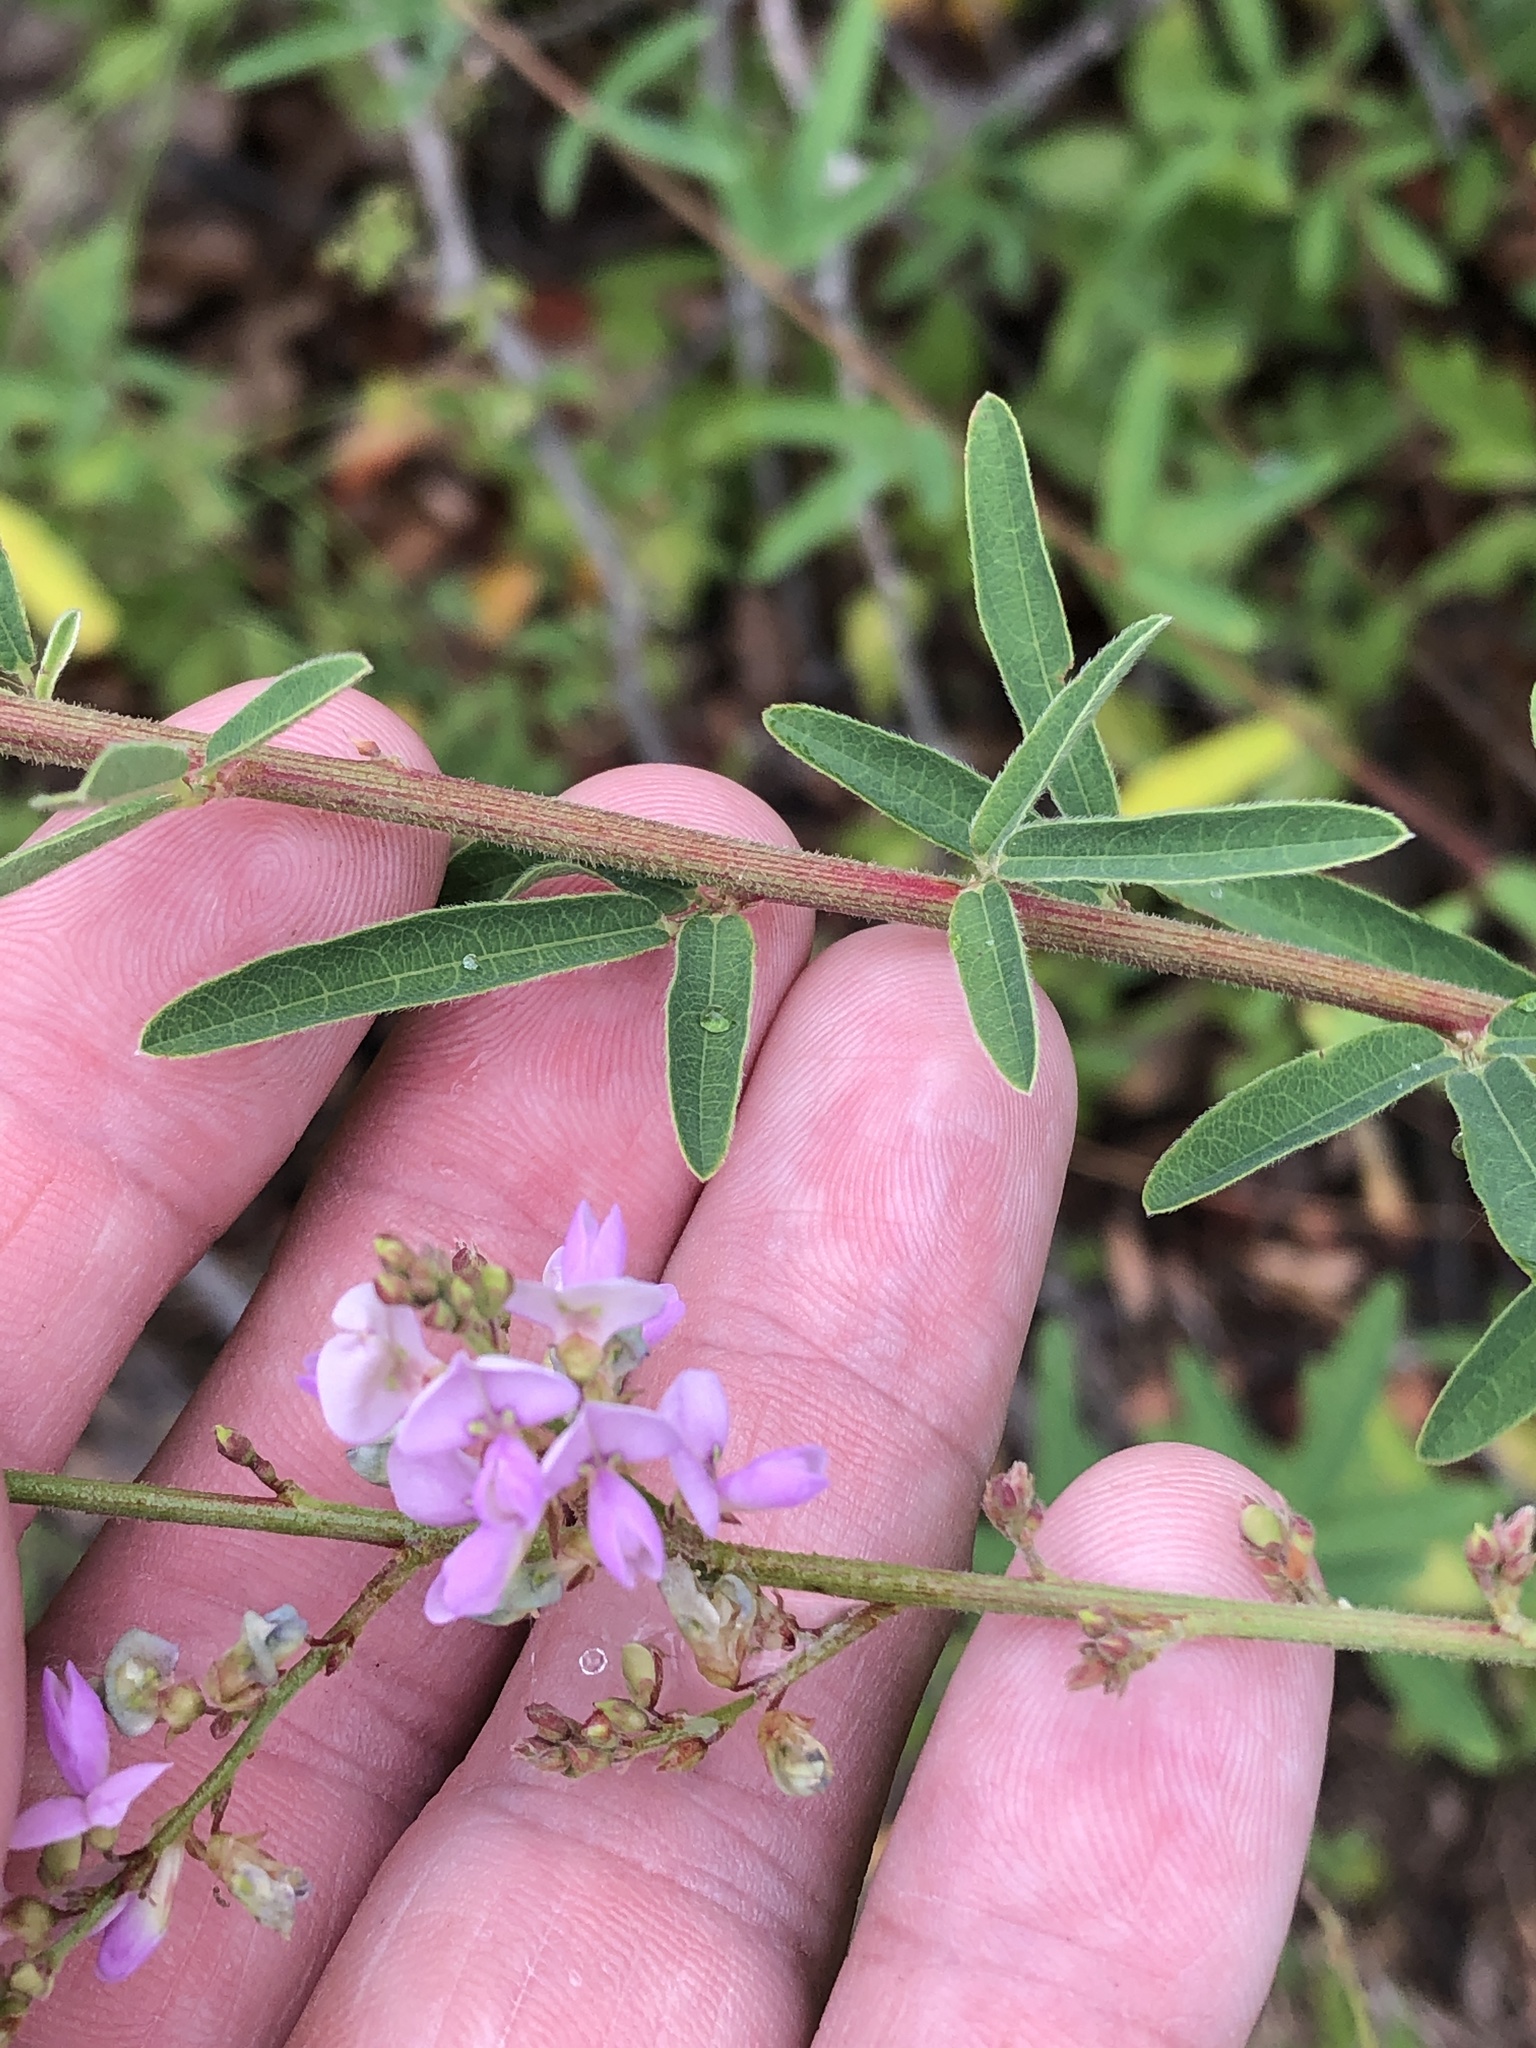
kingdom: Plantae
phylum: Tracheophyta
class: Magnoliopsida
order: Fabales
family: Fabaceae
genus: Desmodium
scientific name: Desmodium sessilifolium
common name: Sessile tick-clover
